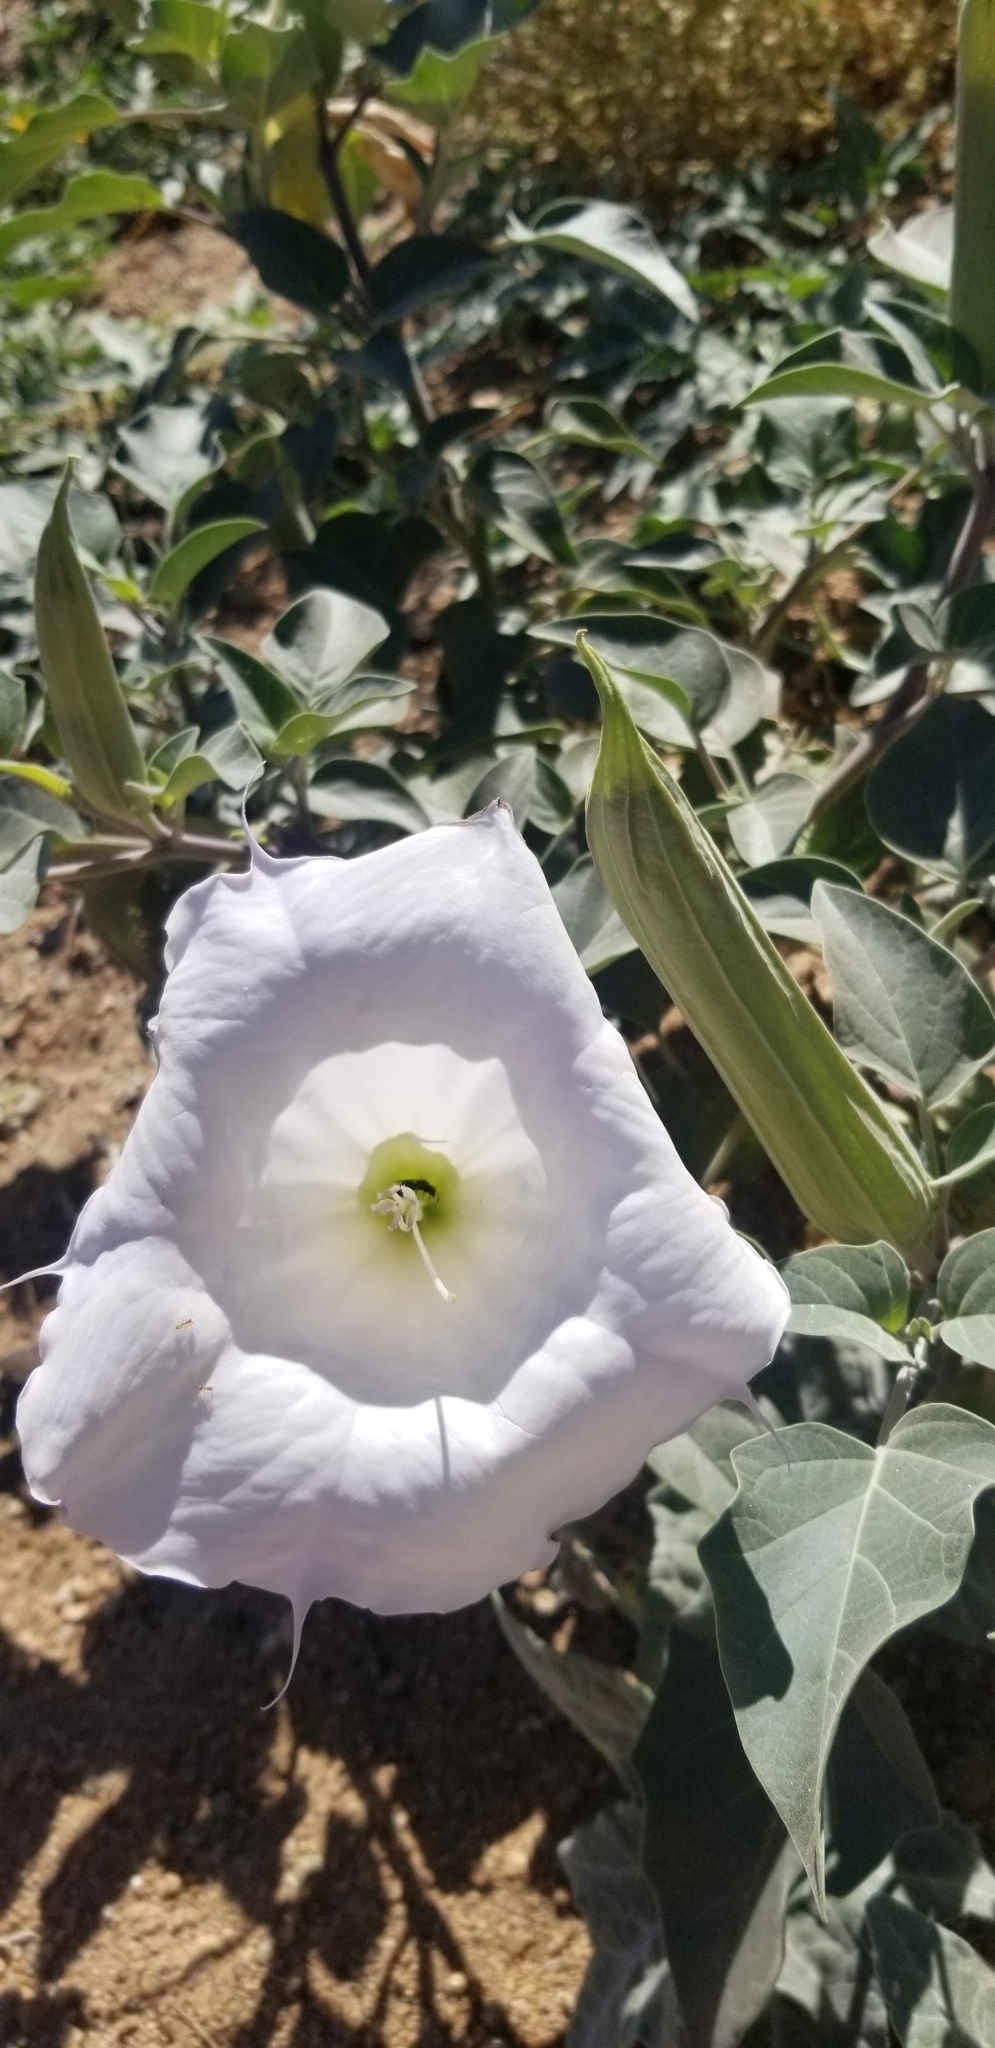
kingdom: Plantae
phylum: Tracheophyta
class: Magnoliopsida
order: Solanales
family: Solanaceae
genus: Datura
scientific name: Datura wrightii
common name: Sacred thorn-apple
